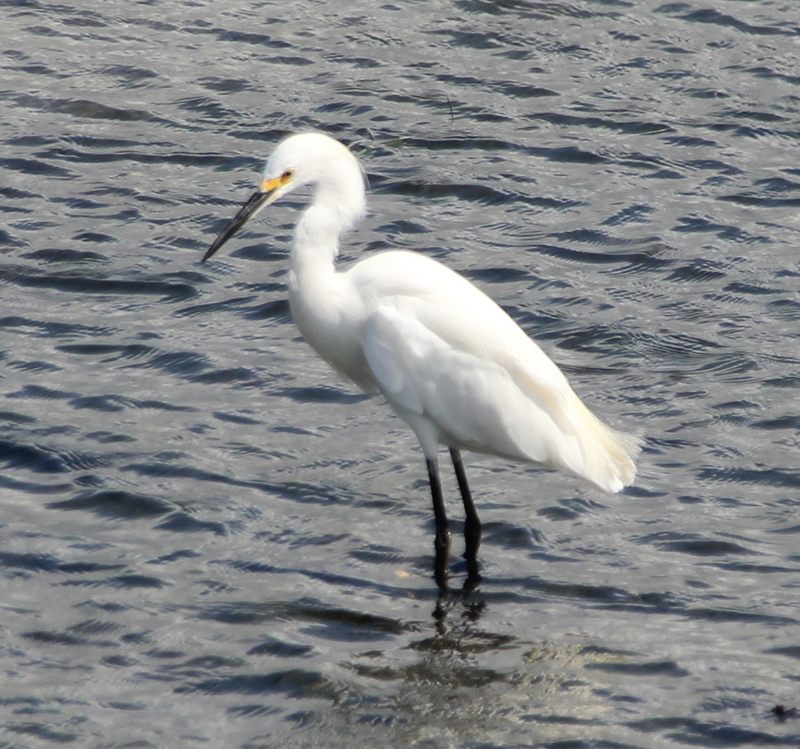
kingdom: Animalia
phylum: Chordata
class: Aves
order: Pelecaniformes
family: Ardeidae
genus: Egretta
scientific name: Egretta thula
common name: Snowy egret
